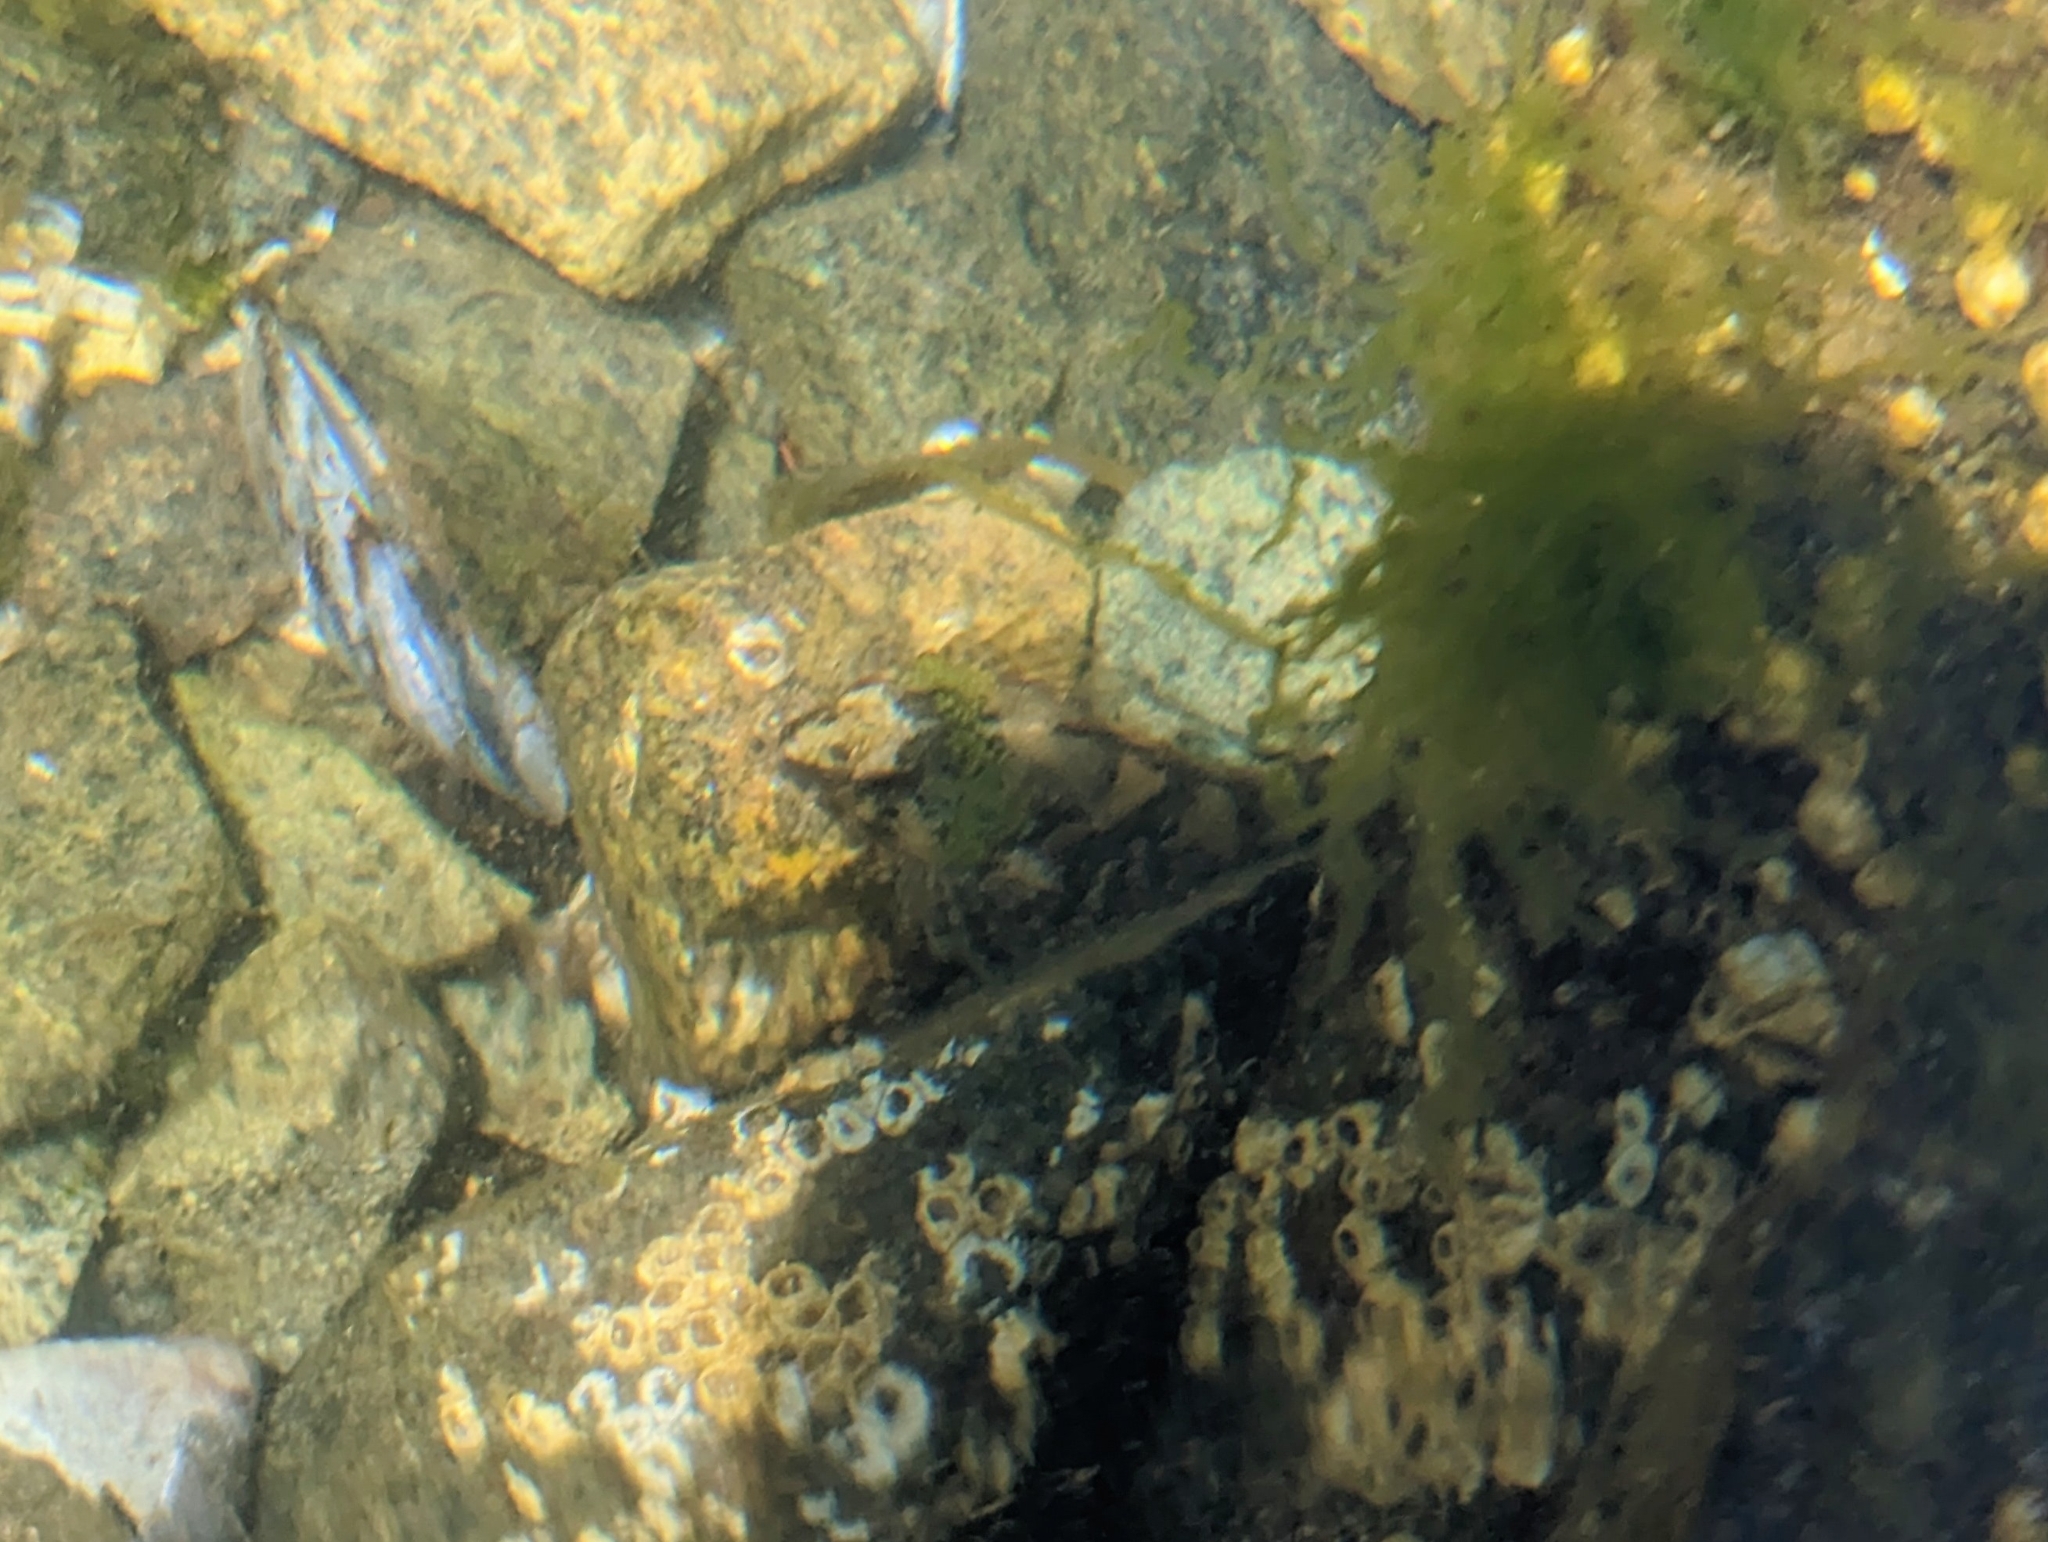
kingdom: Animalia
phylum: Chordata
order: Scorpaeniformes
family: Cottidae
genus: Oligocottus
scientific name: Oligocottus maculosus
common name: Tidepool sculpin
